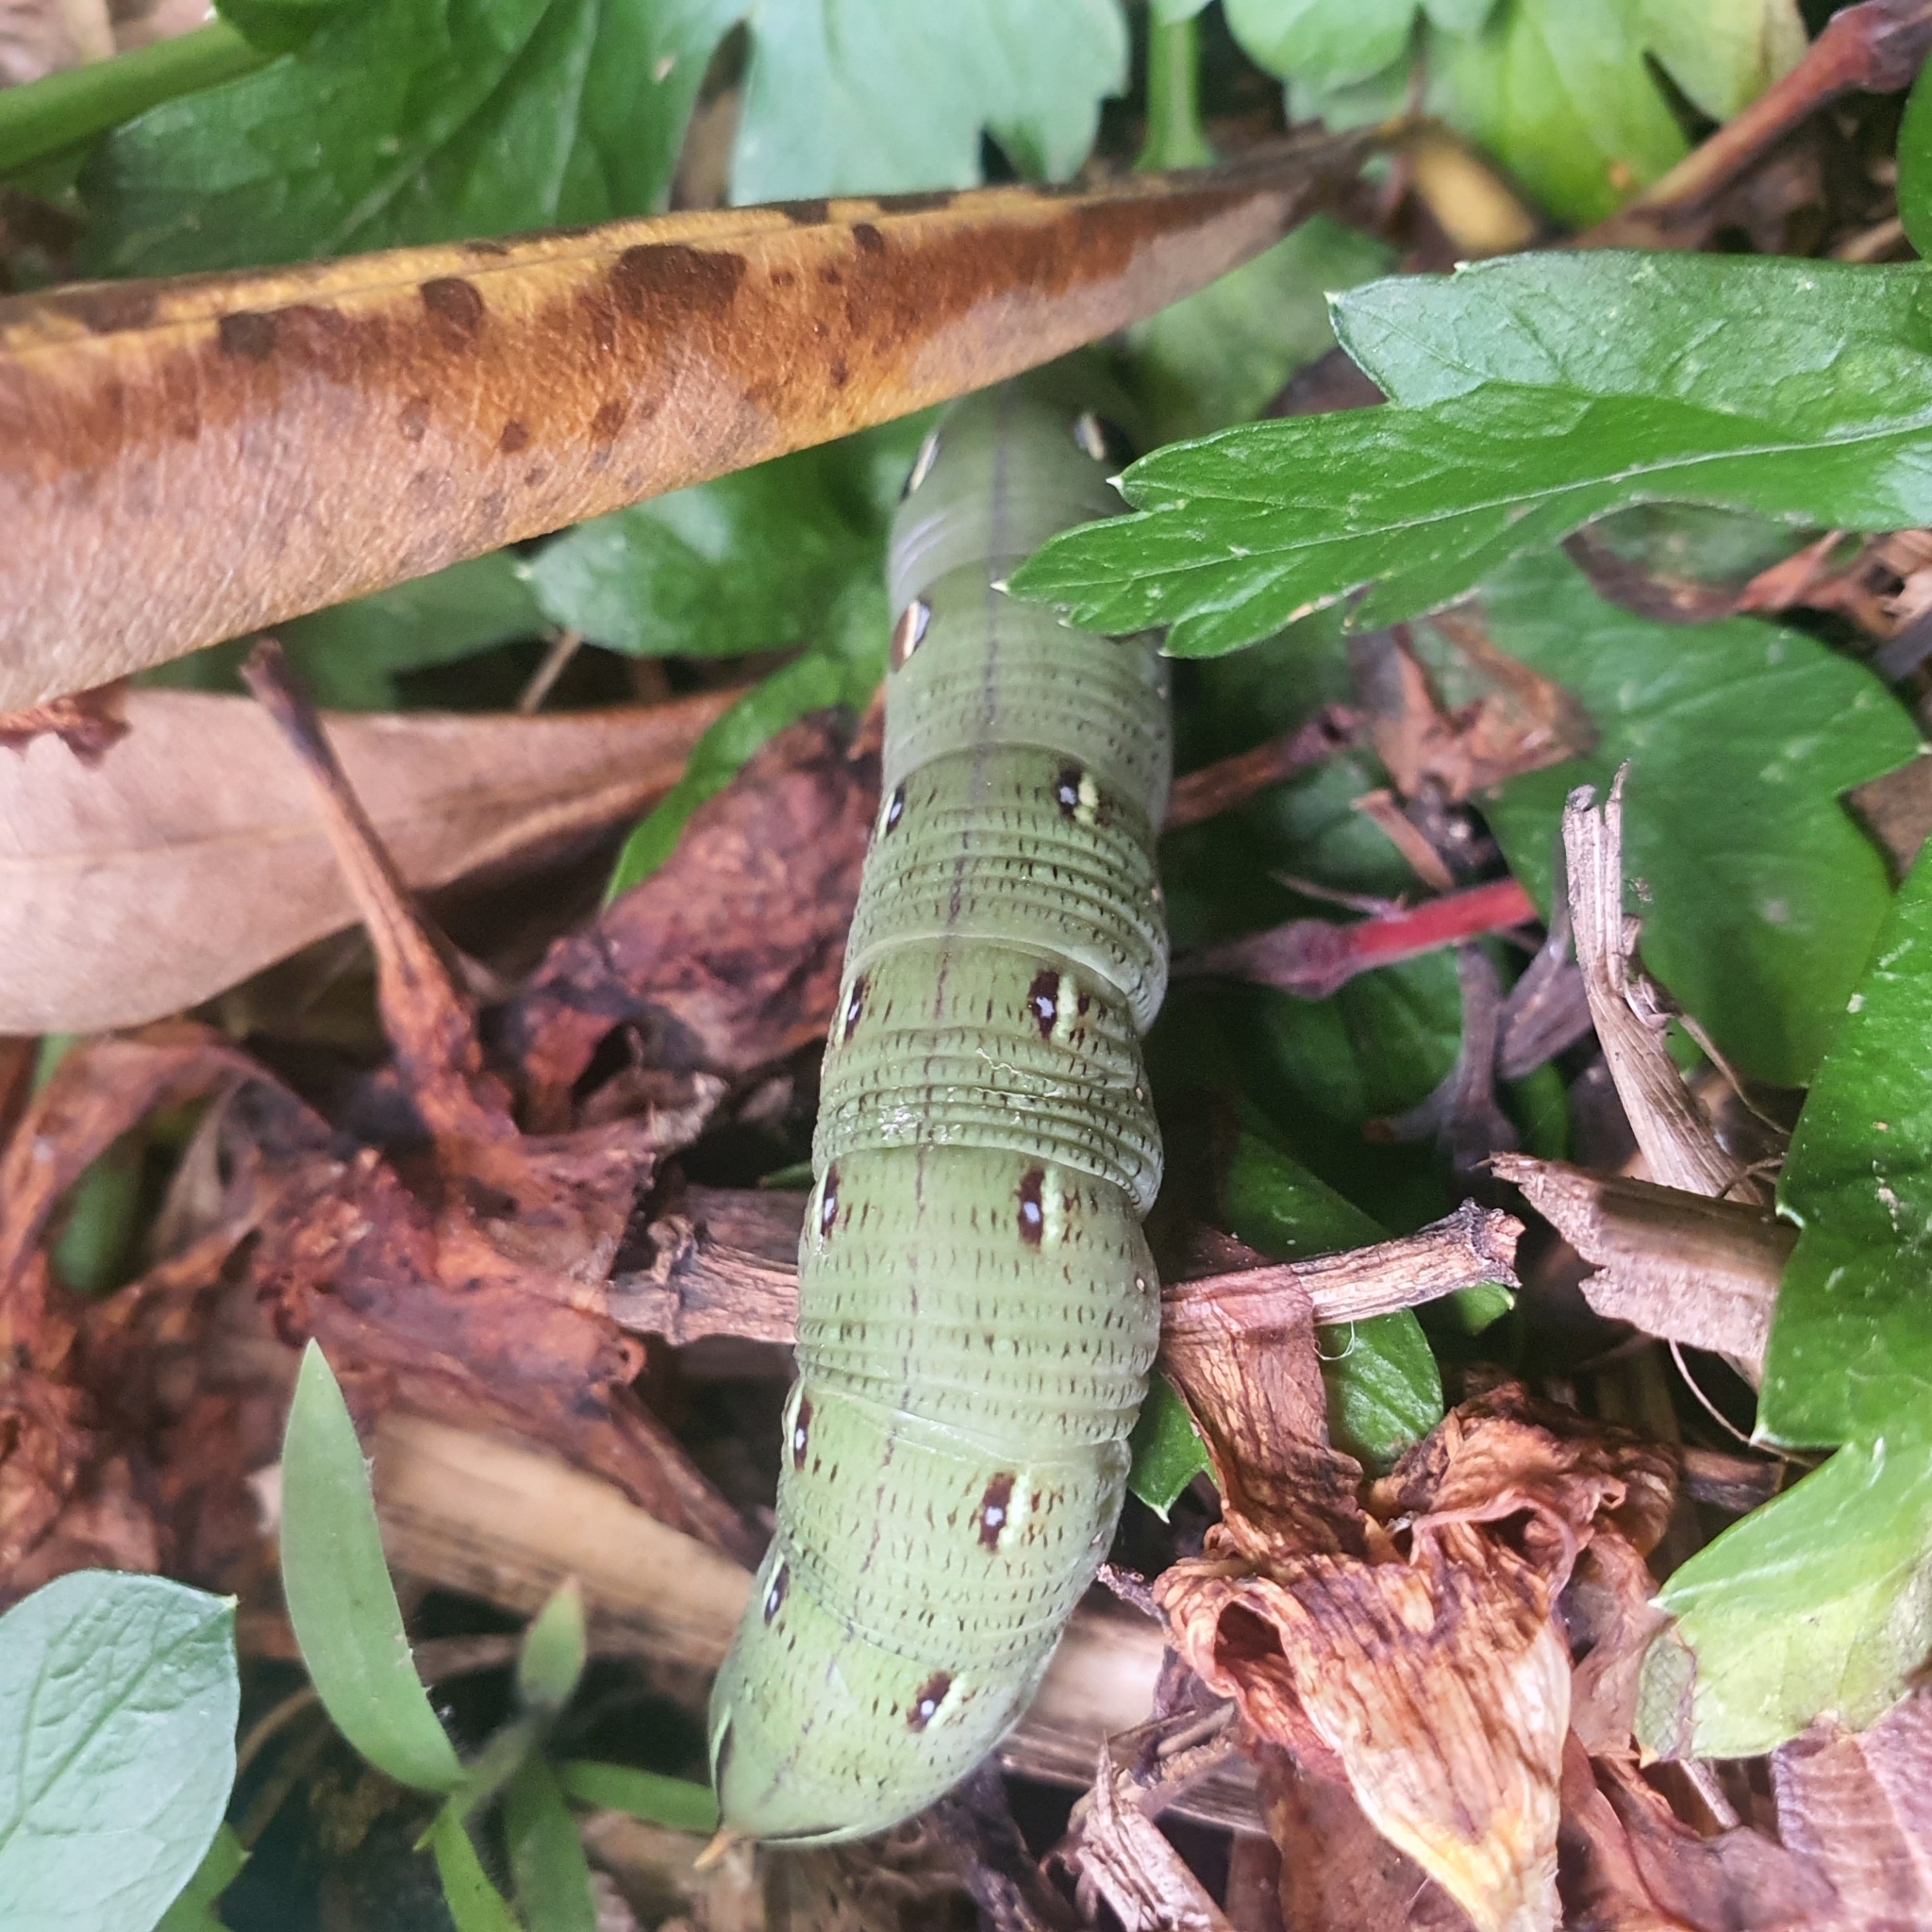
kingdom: Animalia
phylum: Arthropoda
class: Insecta
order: Lepidoptera
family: Sphingidae
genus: Hippotion
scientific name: Hippotion scrofa
